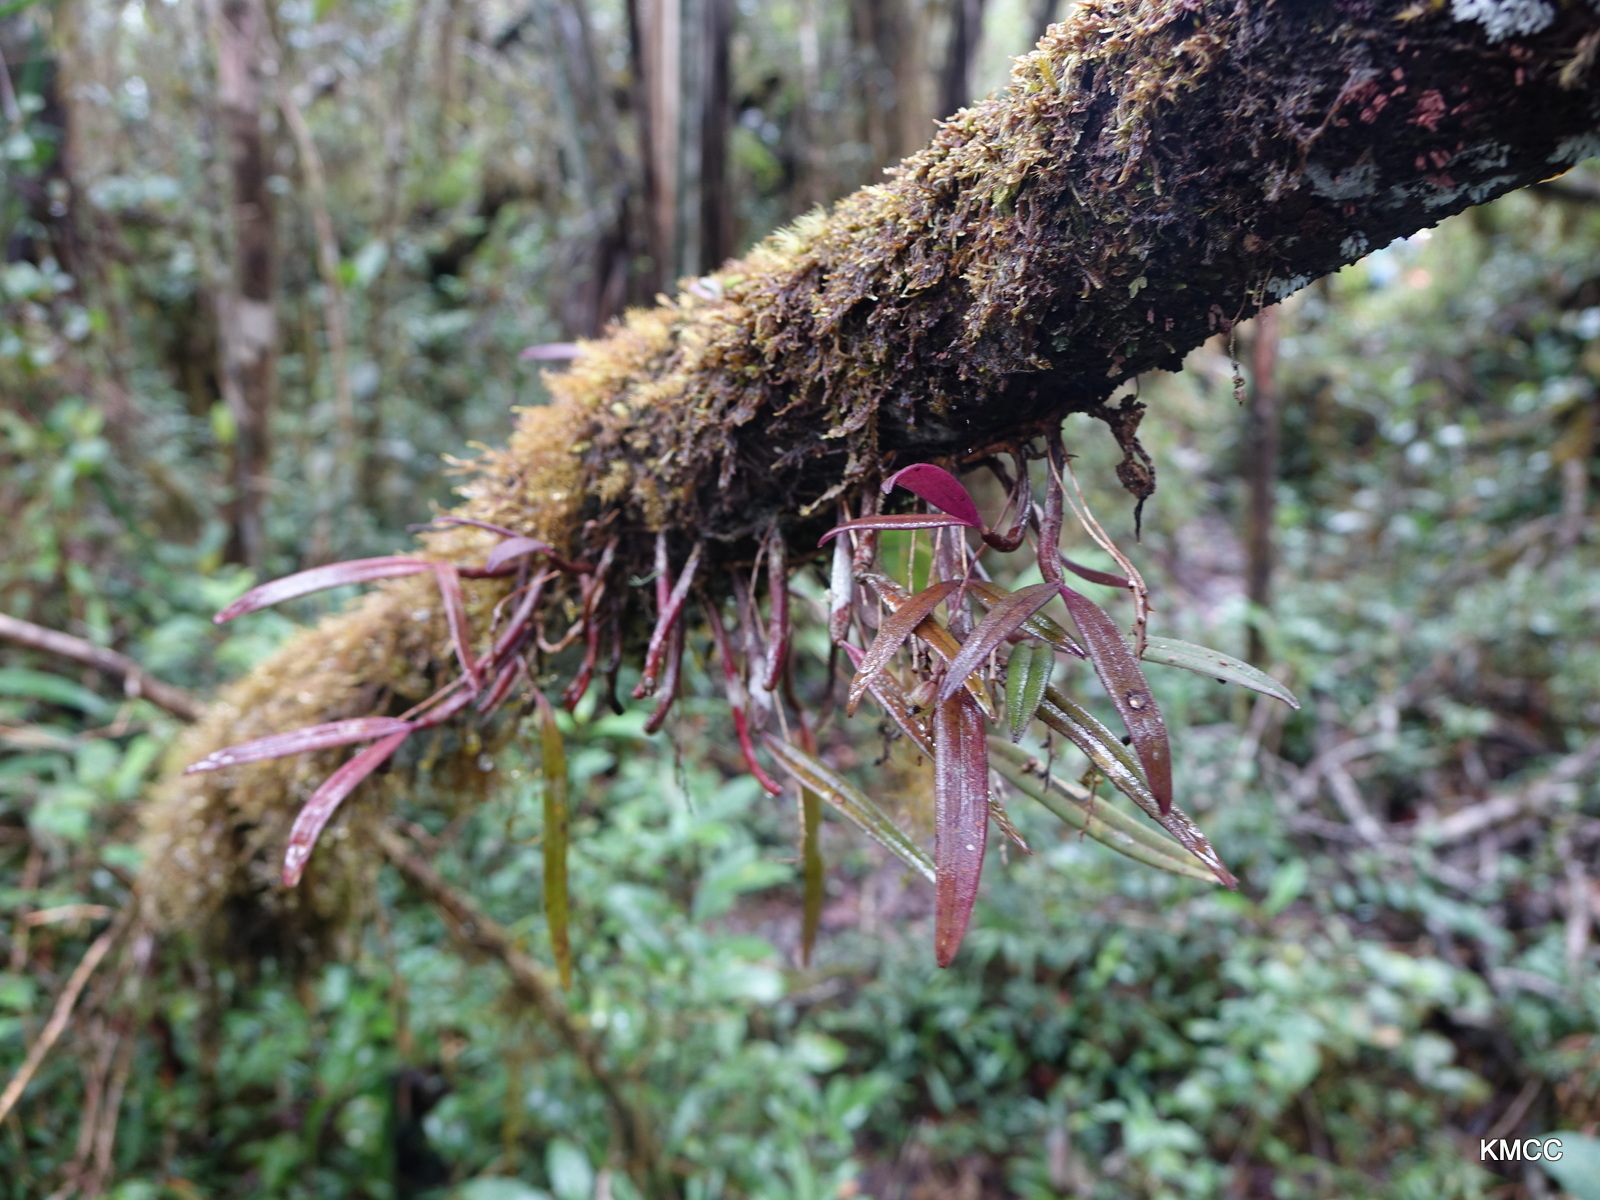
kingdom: Plantae
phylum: Tracheophyta
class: Liliopsida
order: Asparagales
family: Orchidaceae
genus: Bulbophyllum
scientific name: Bulbophyllum aubrevillei
